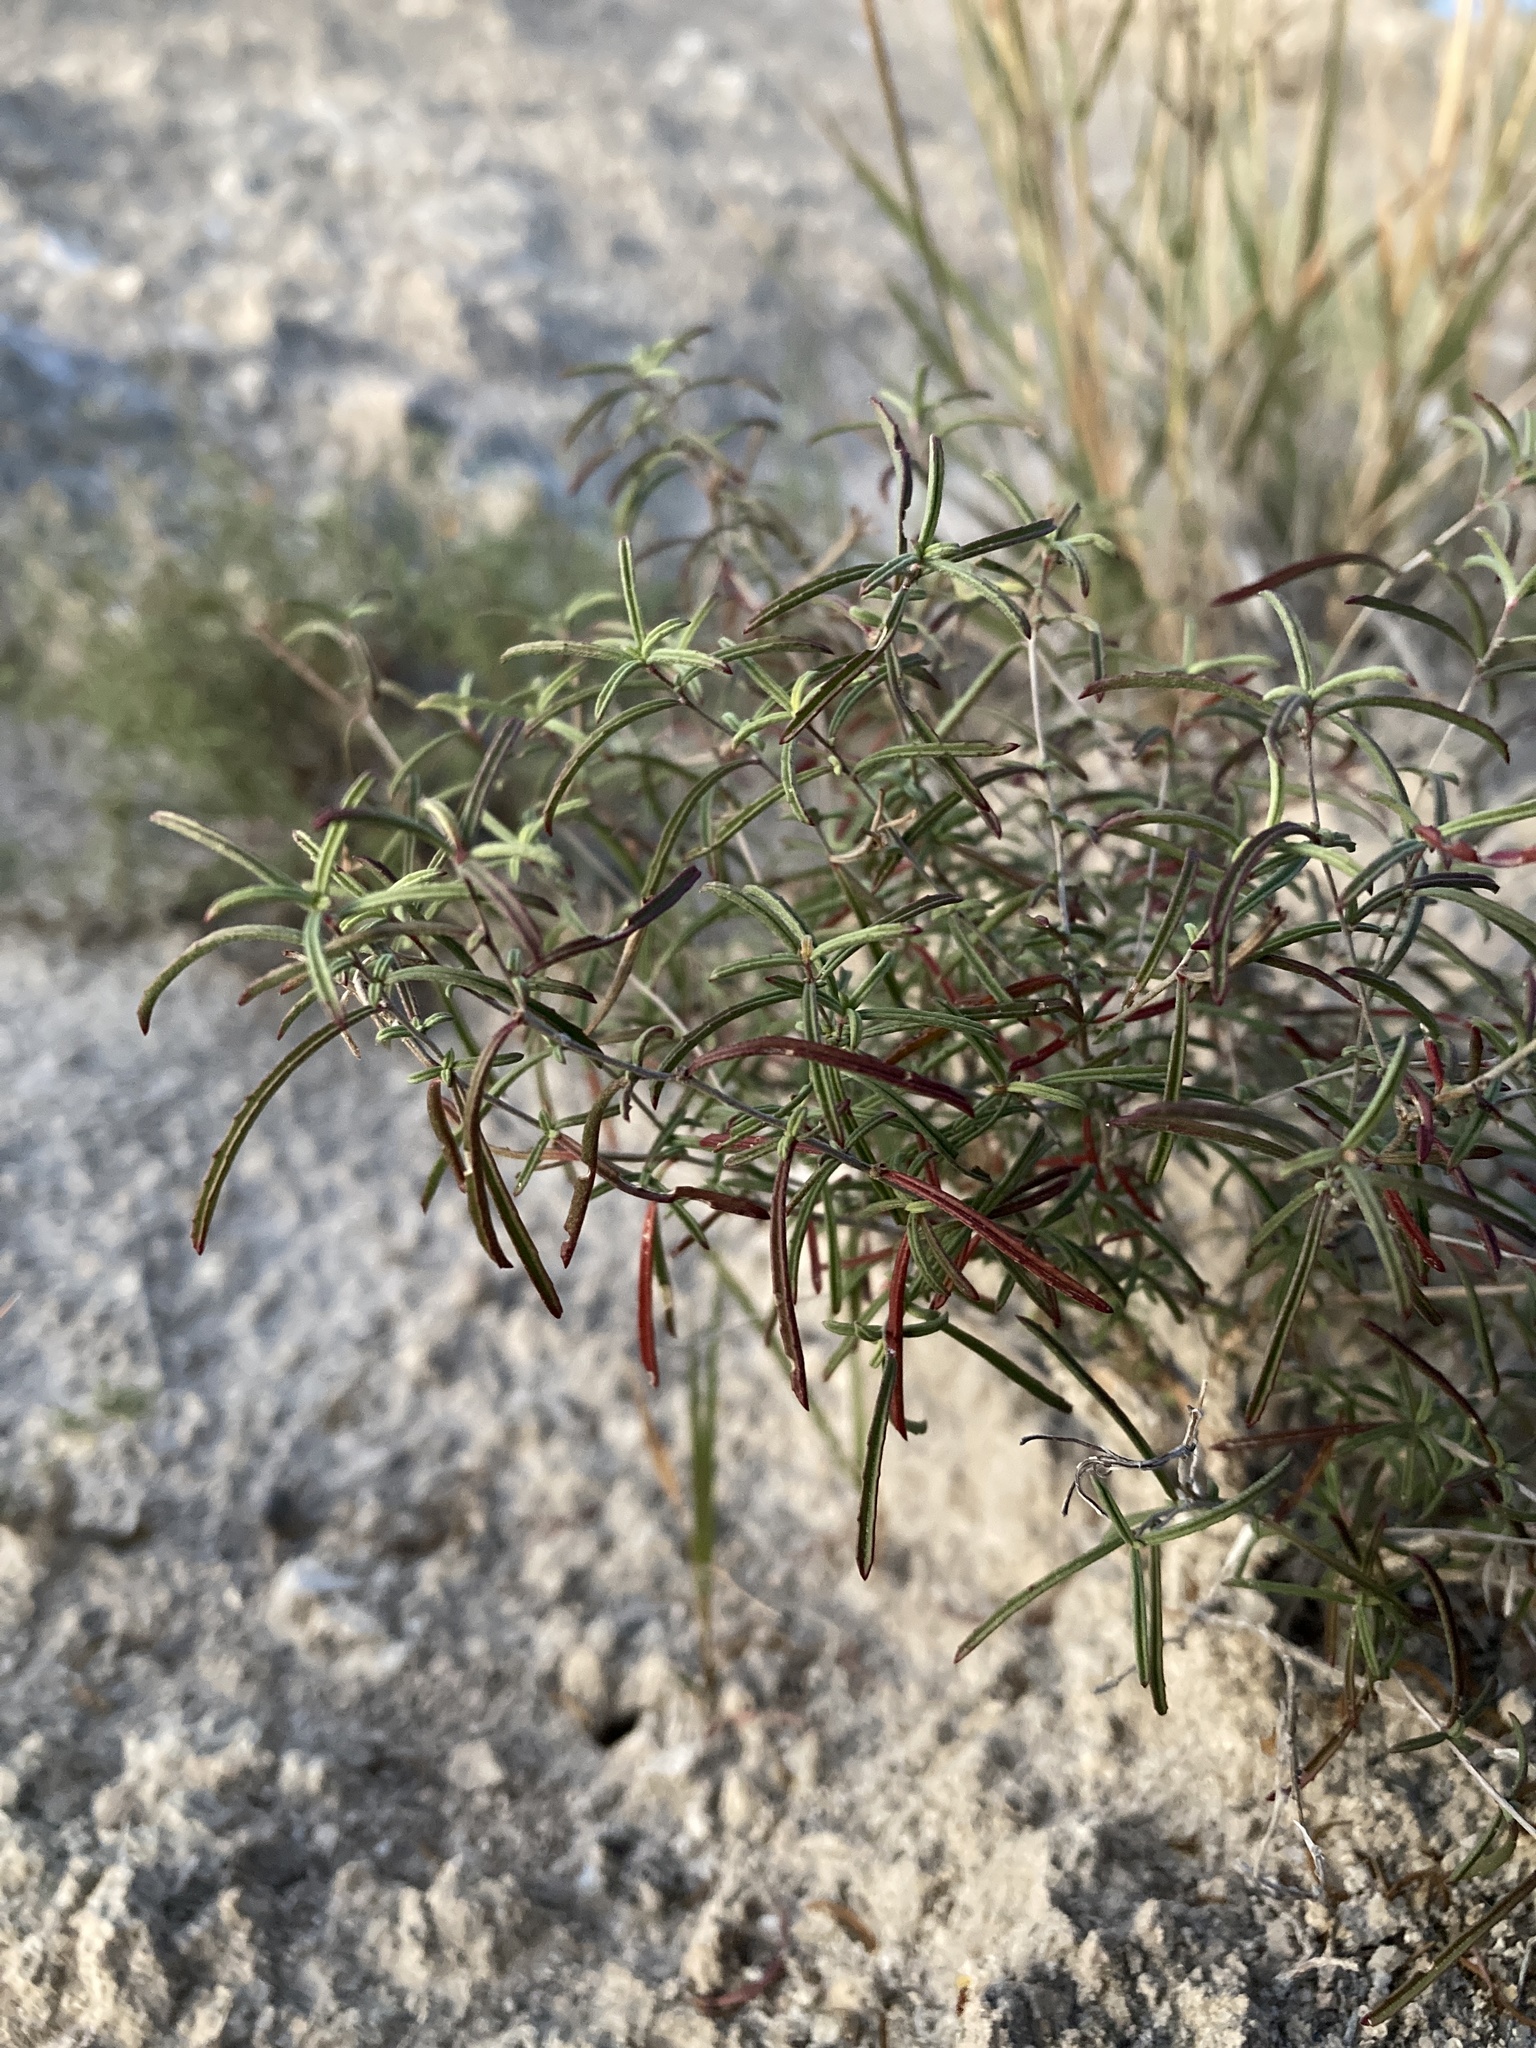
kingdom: Plantae
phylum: Tracheophyta
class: Magnoliopsida
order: Myrtales
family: Onagraceae
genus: Oenothera
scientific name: Oenothera gayleana
